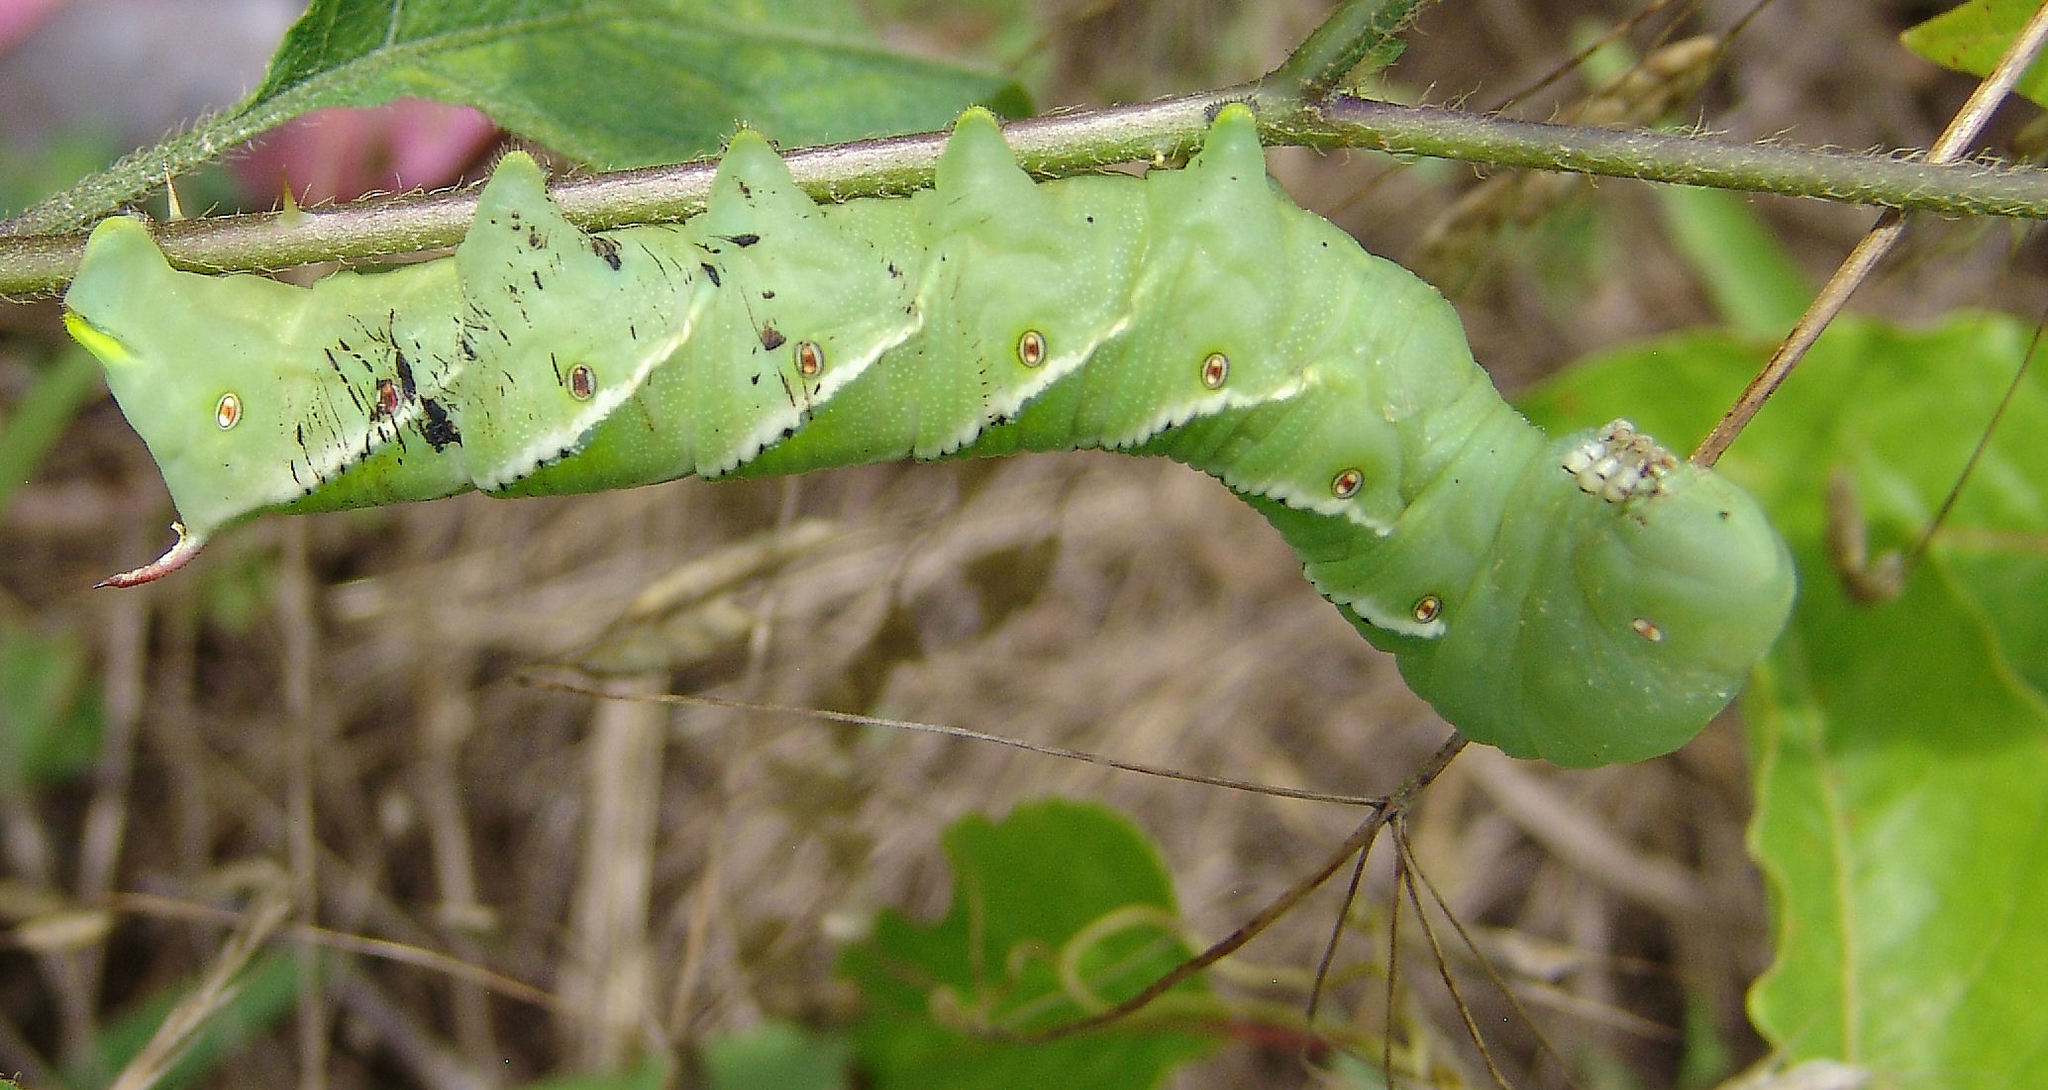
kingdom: Animalia
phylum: Arthropoda
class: Insecta
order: Lepidoptera
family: Sphingidae
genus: Manduca
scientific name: Manduca sexta
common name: Carolina sphinx
